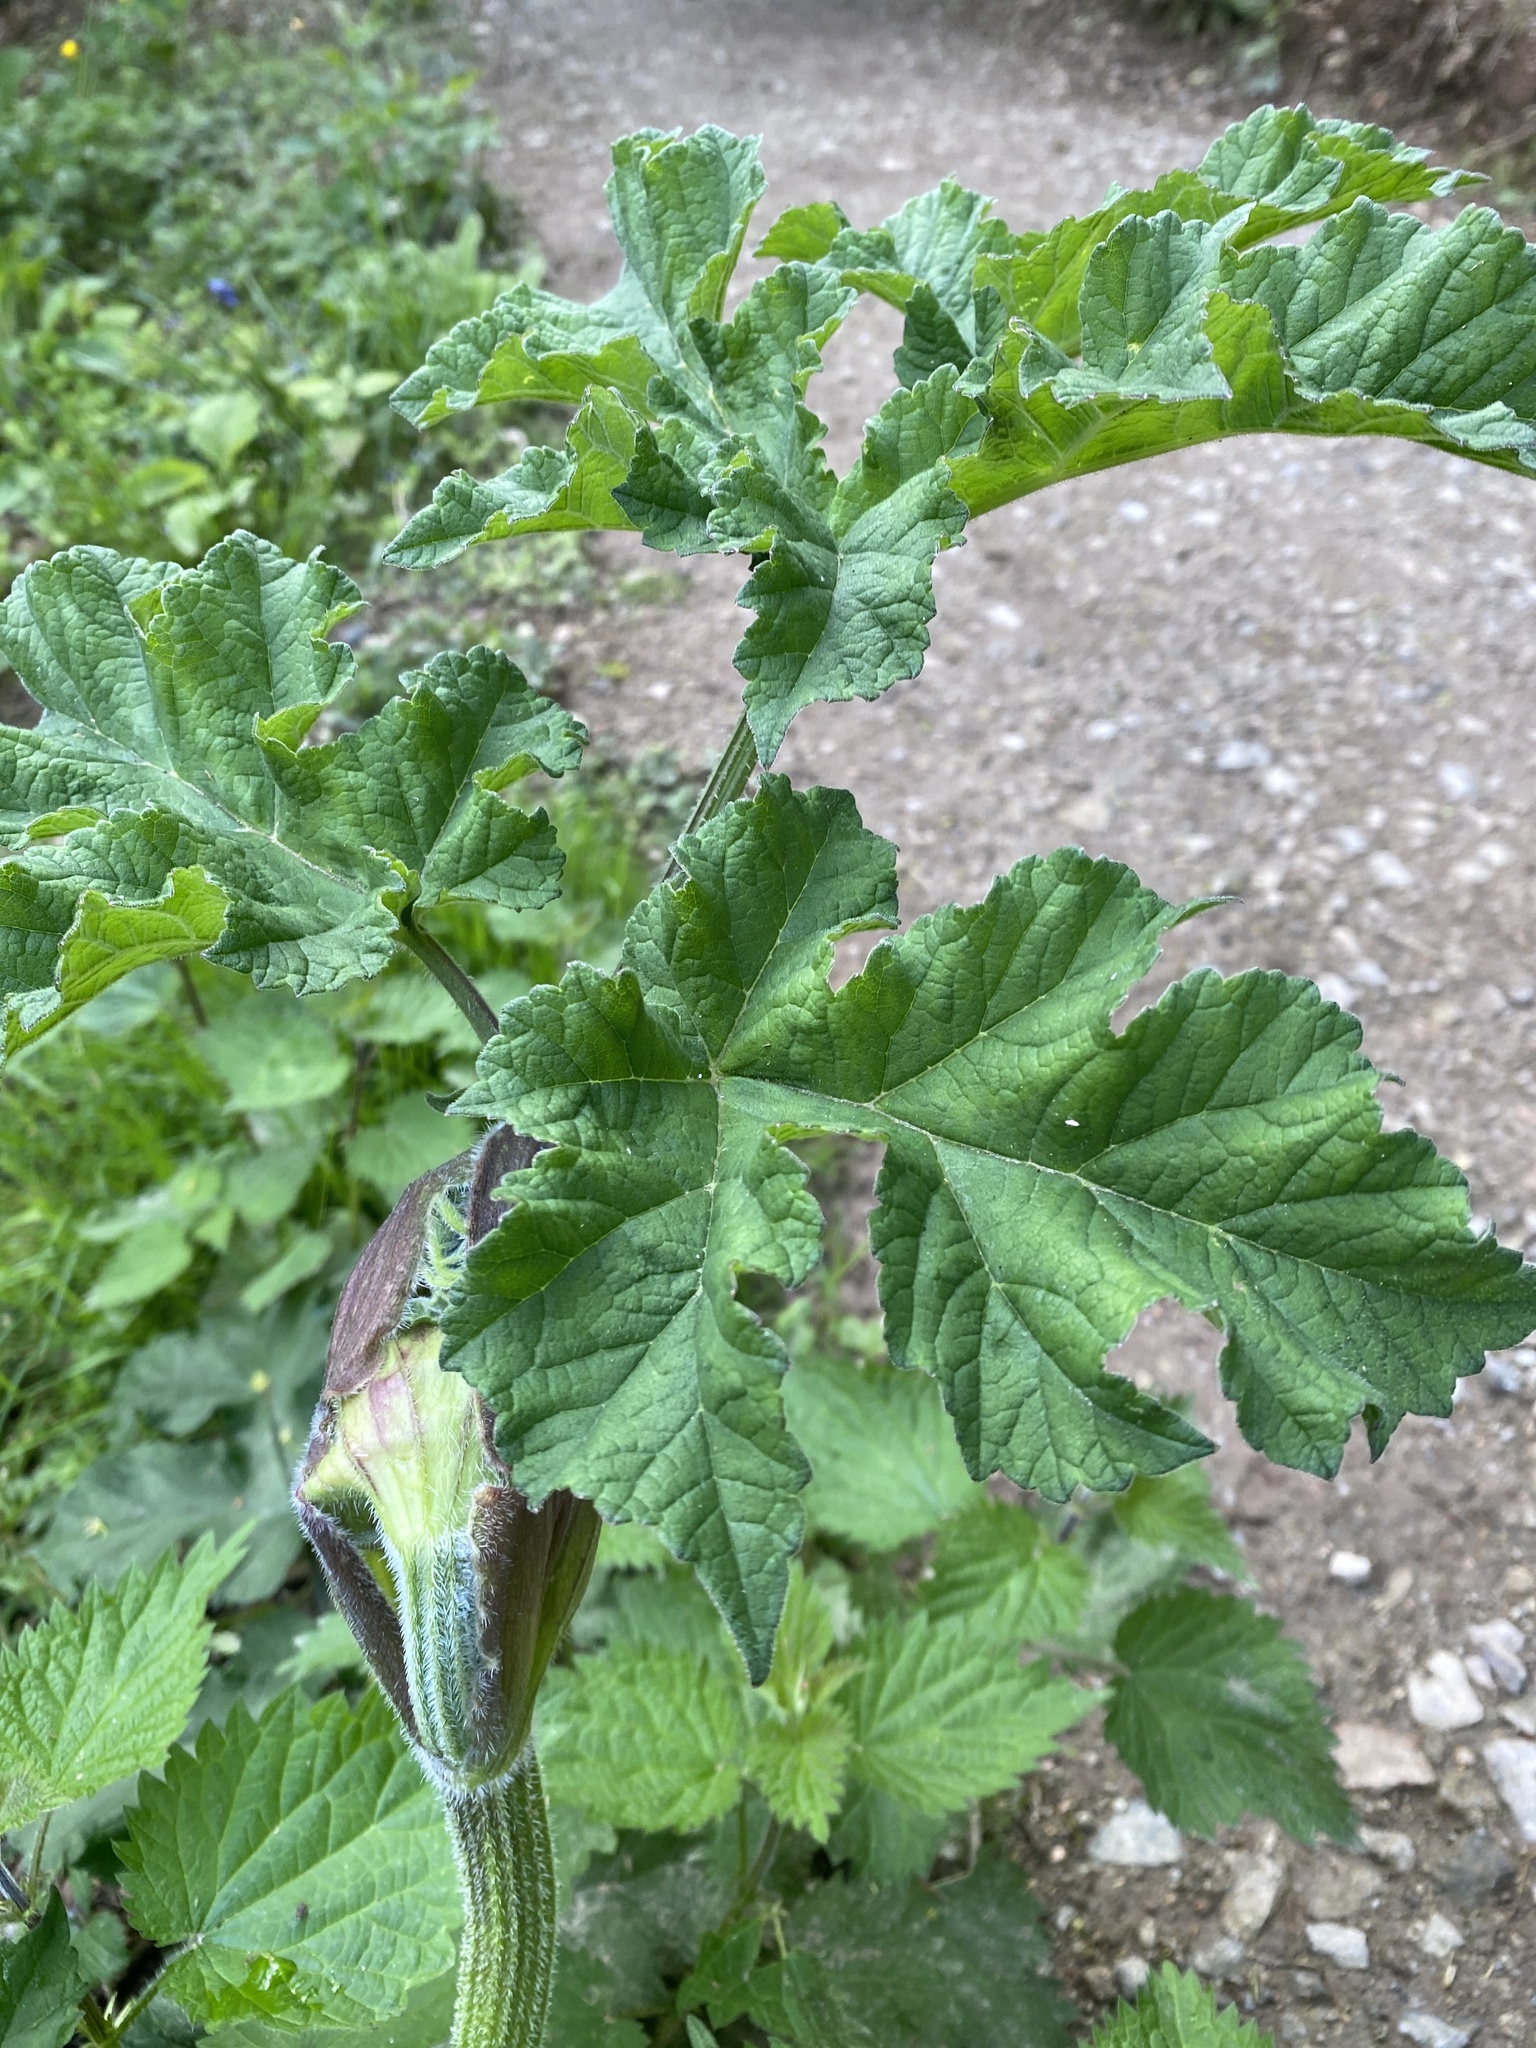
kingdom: Plantae
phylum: Tracheophyta
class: Magnoliopsida
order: Apiales
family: Apiaceae
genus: Heracleum
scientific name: Heracleum sphondylium
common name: Hogweed
